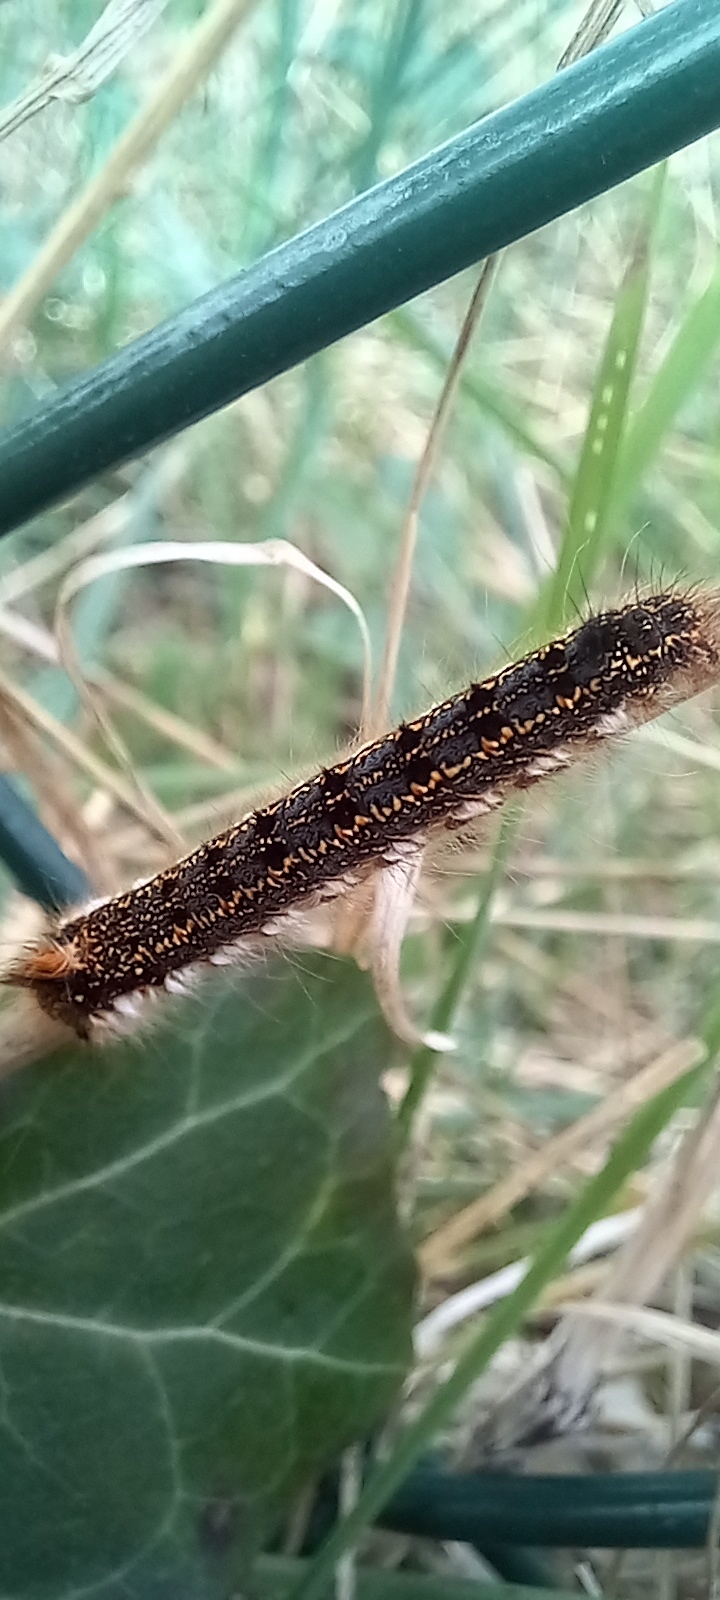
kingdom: Animalia
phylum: Arthropoda
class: Insecta
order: Lepidoptera
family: Lasiocampidae
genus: Euthrix
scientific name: Euthrix potatoria
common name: Drinker
